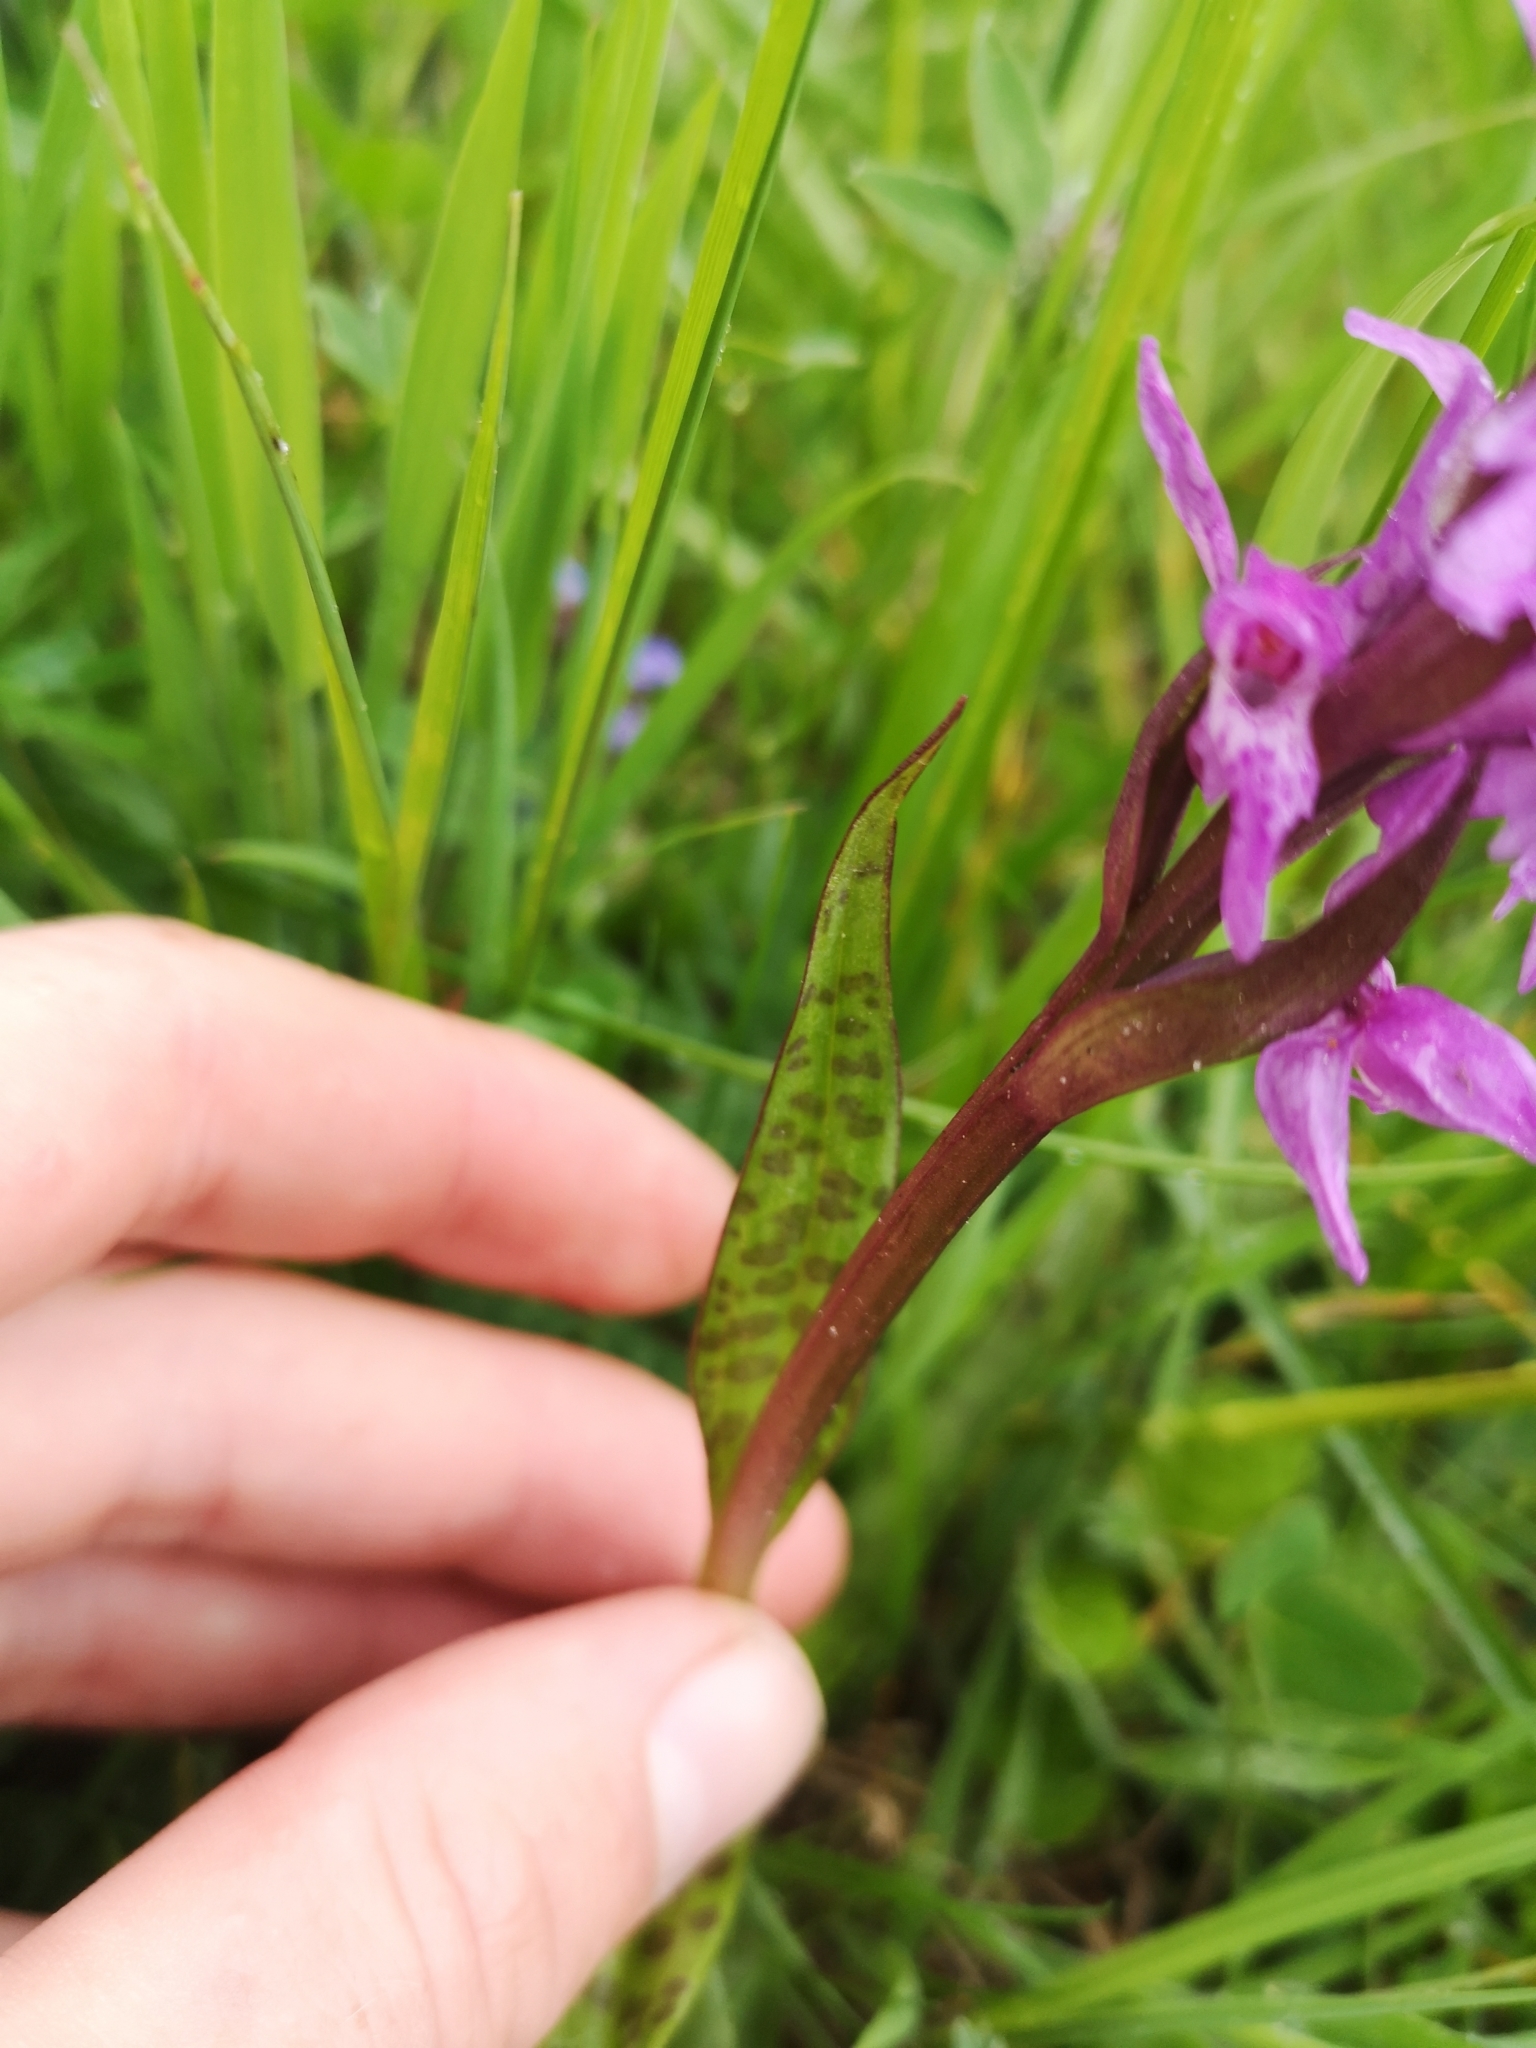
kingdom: Plantae
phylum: Tracheophyta
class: Liliopsida
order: Asparagales
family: Orchidaceae
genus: Dactylorhiza
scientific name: Dactylorhiza majalis
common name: Marsh orchid
